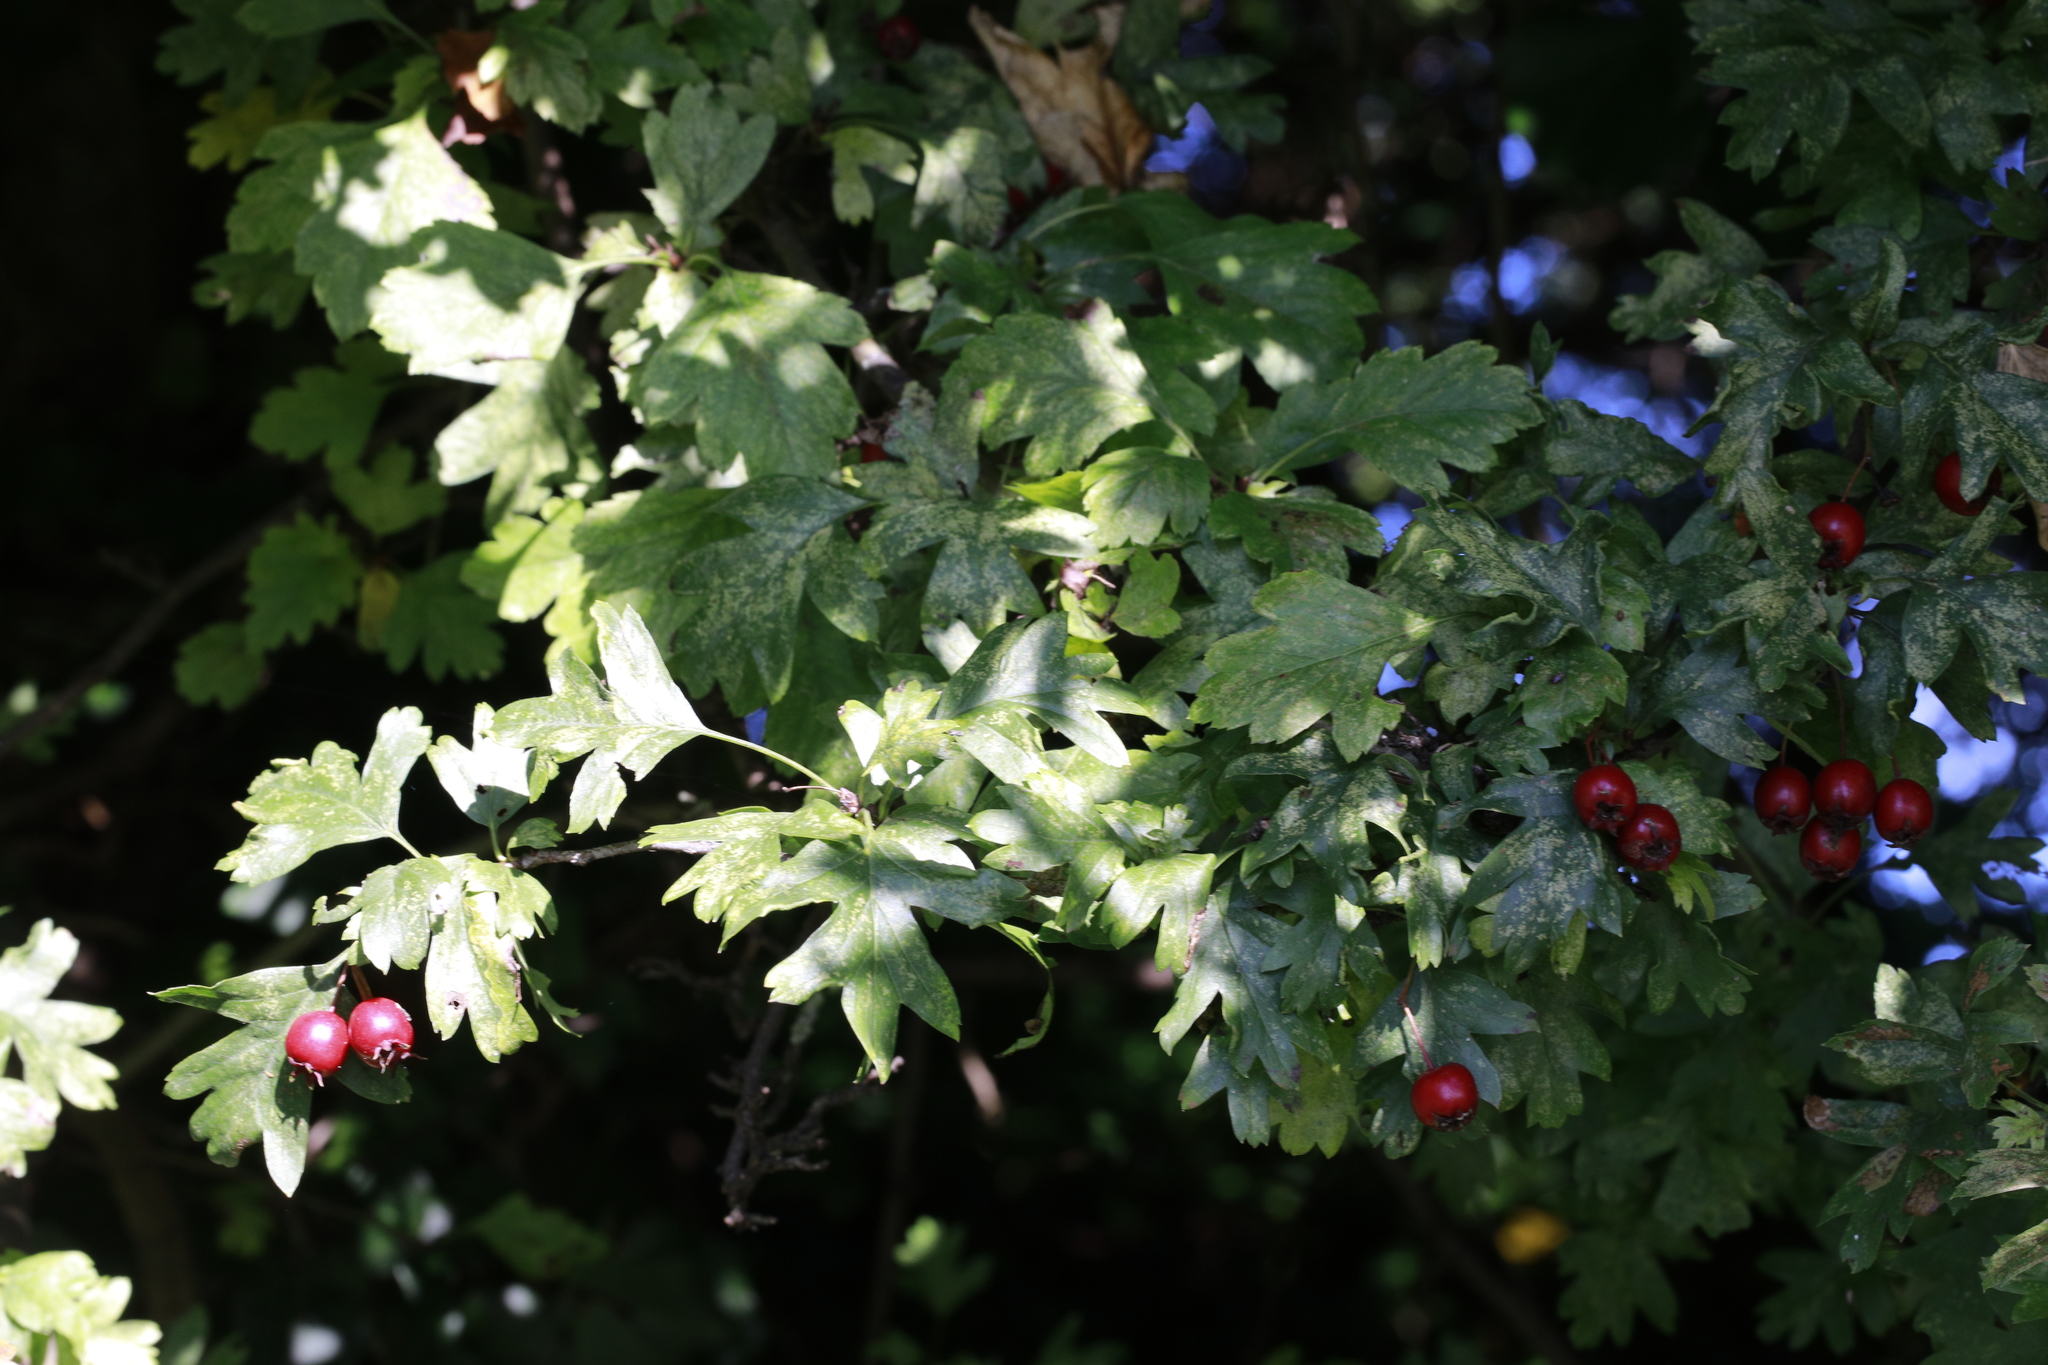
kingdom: Plantae
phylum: Tracheophyta
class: Magnoliopsida
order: Rosales
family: Rosaceae
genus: Crataegus
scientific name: Crataegus monogyna
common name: Hawthorn
